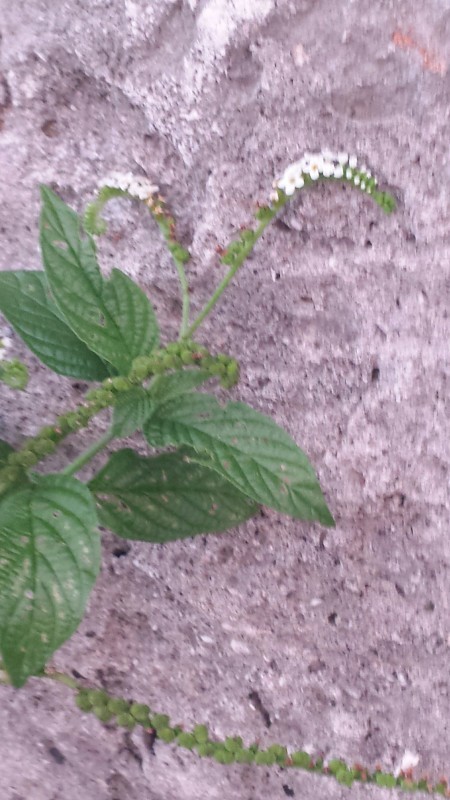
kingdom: Plantae
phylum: Tracheophyta
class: Magnoliopsida
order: Boraginales
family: Heliotropiaceae
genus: Heliotropium
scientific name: Heliotropium angiospermum
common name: Eye bright
